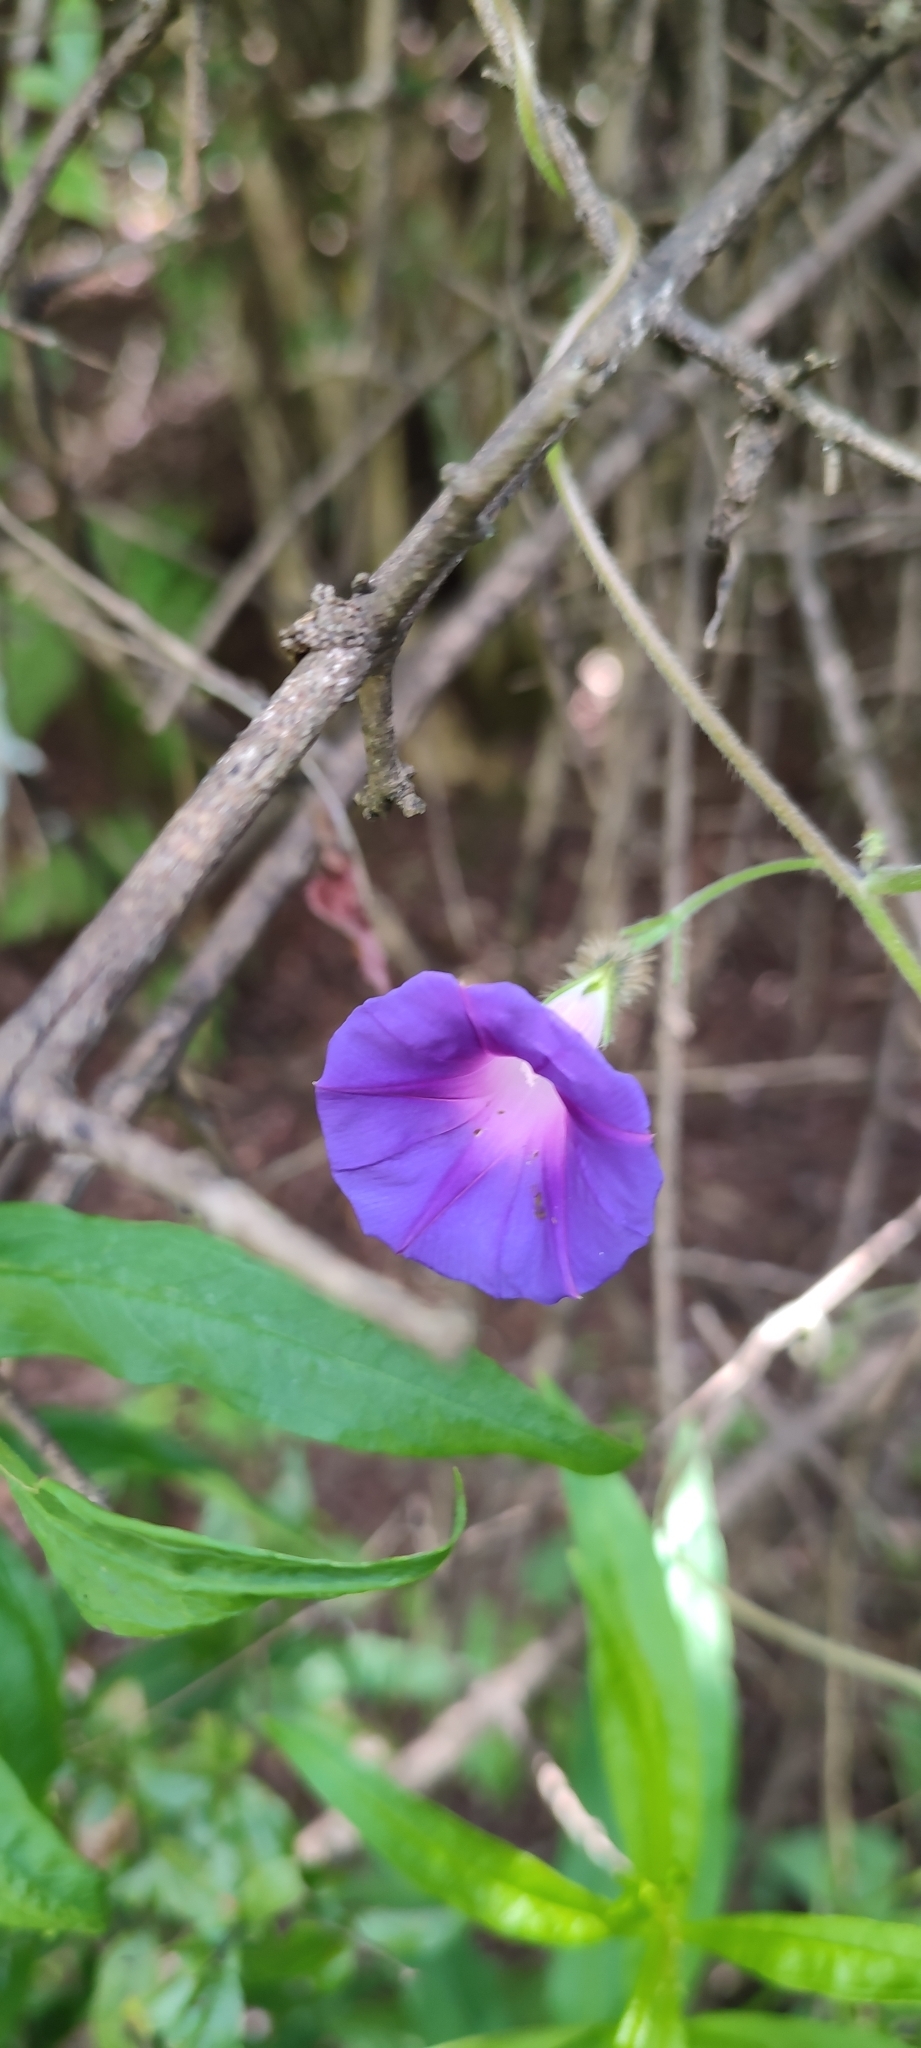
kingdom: Plantae
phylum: Tracheophyta
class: Magnoliopsida
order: Solanales
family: Convolvulaceae
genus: Ipomoea
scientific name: Ipomoea purpurea
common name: Common morning-glory
